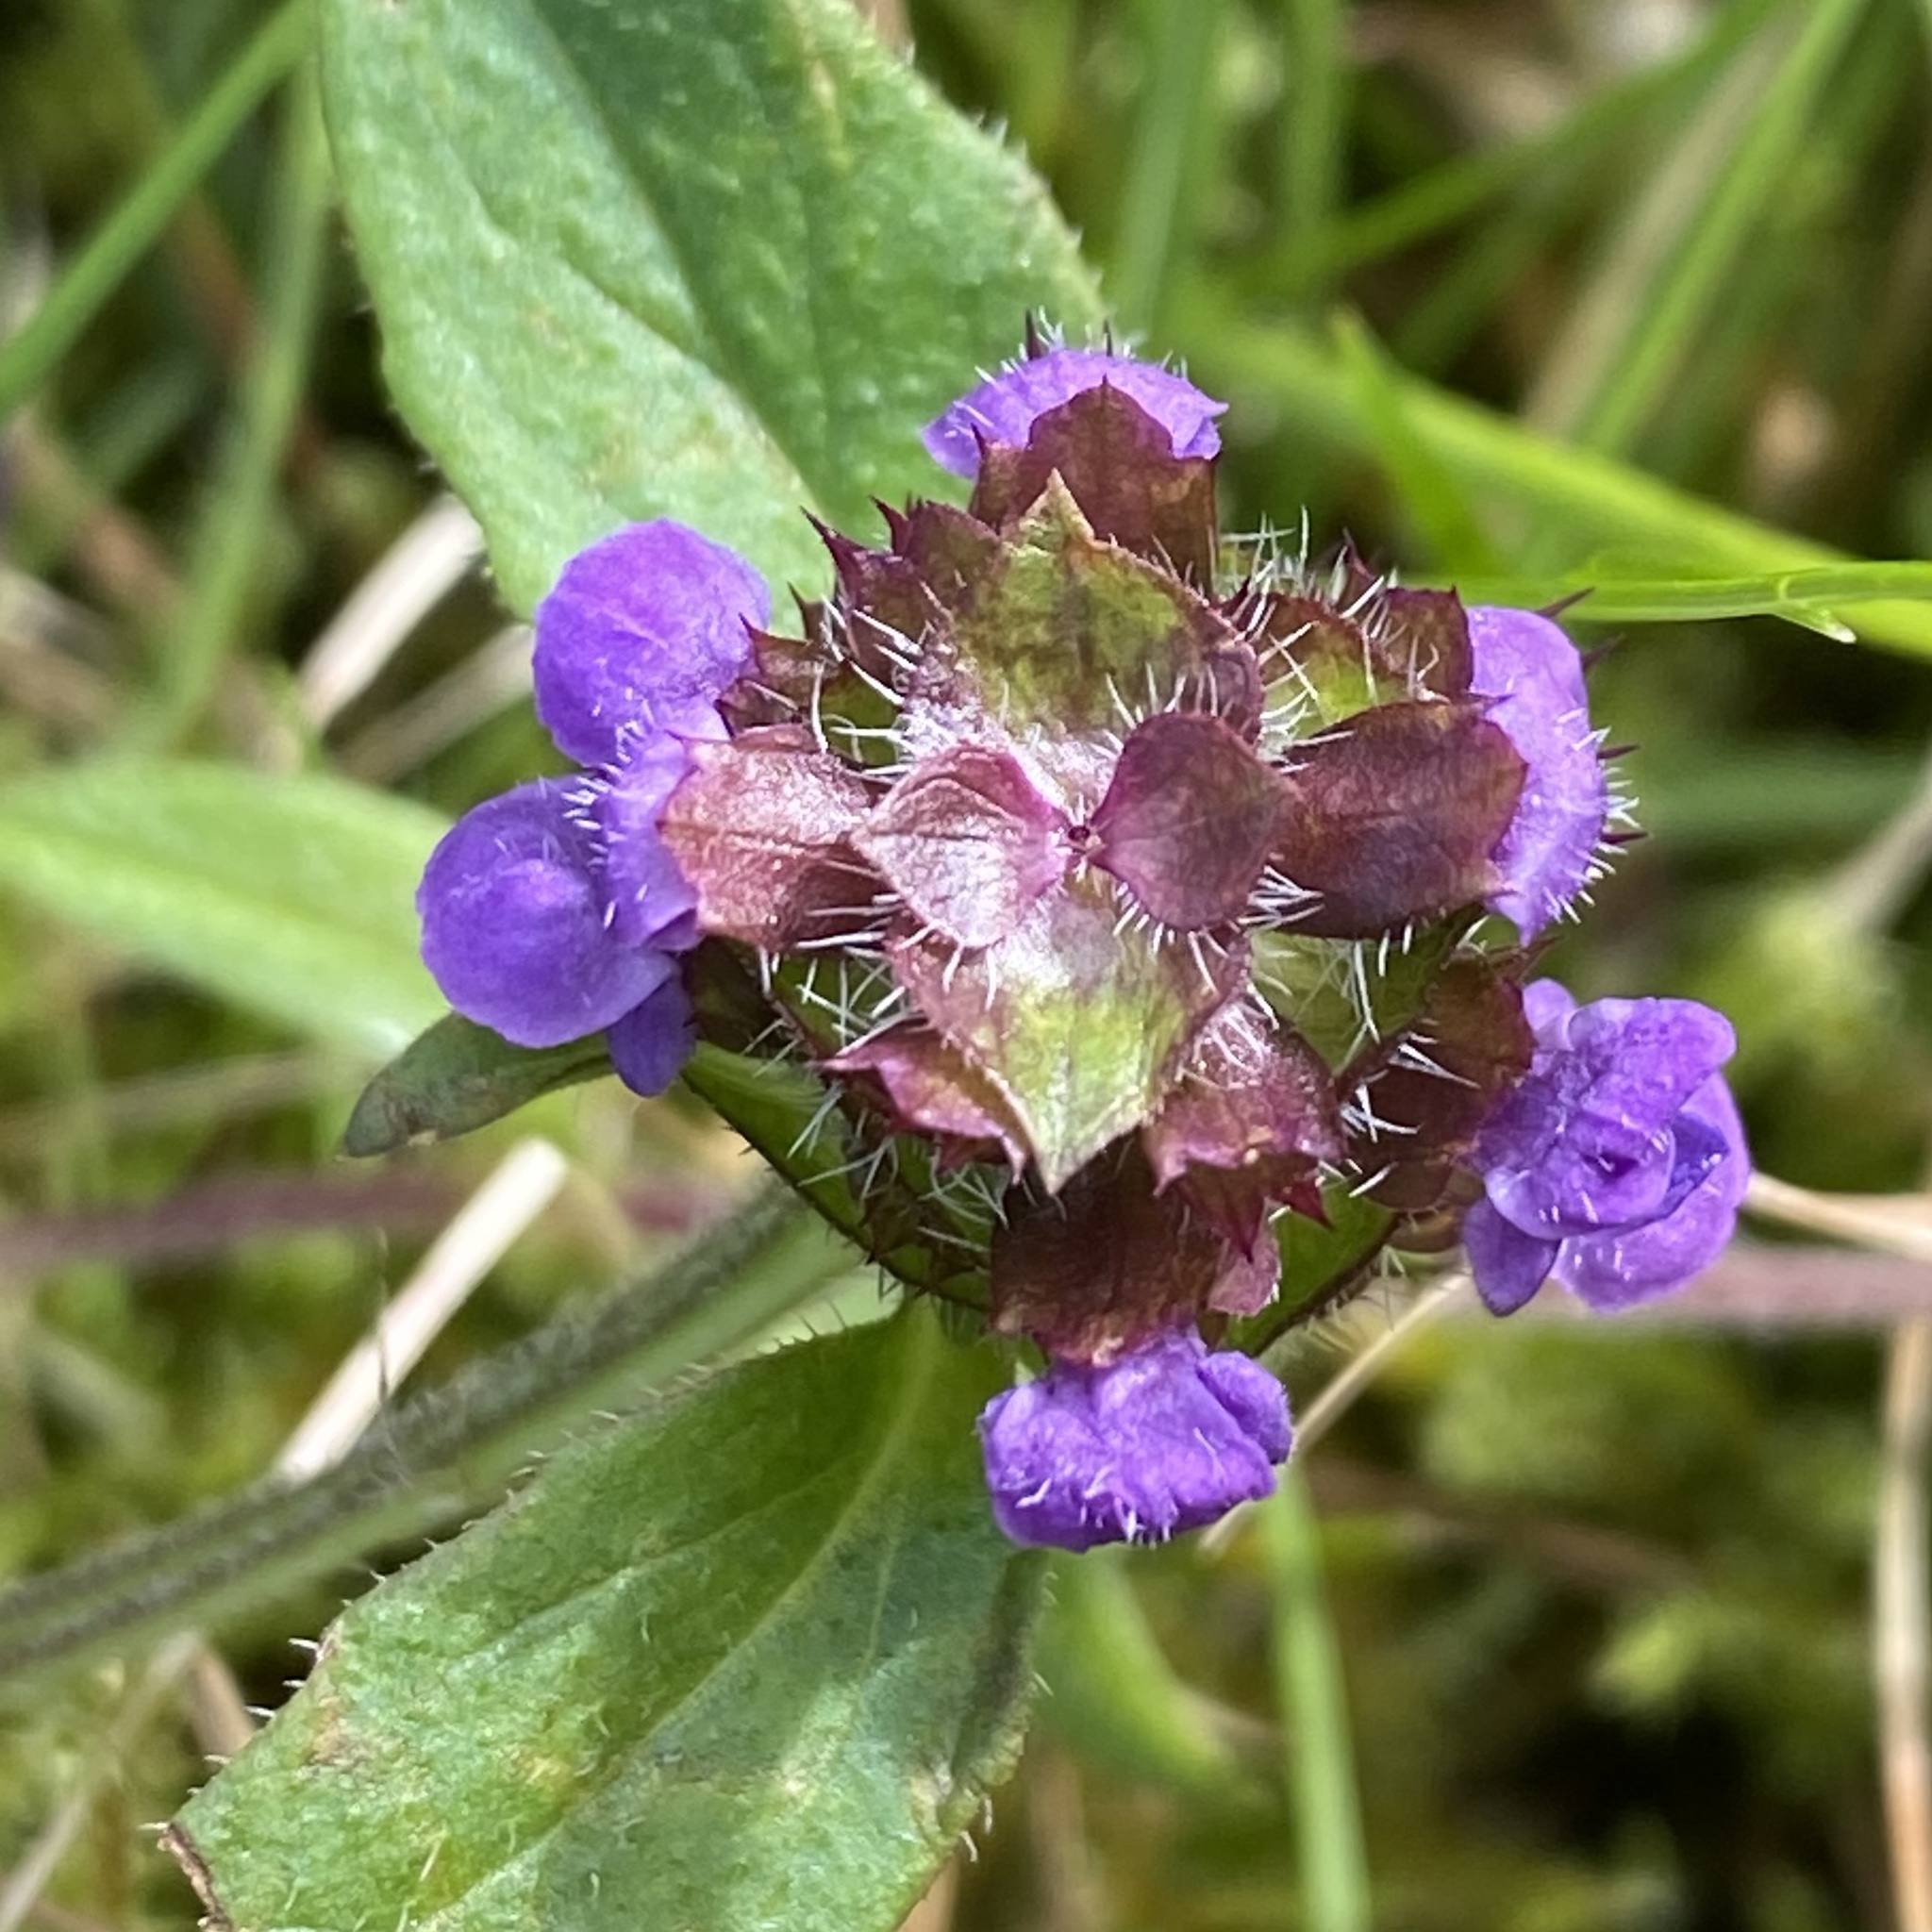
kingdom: Plantae
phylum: Tracheophyta
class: Magnoliopsida
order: Lamiales
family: Lamiaceae
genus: Prunella
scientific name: Prunella vulgaris
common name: Heal-all
